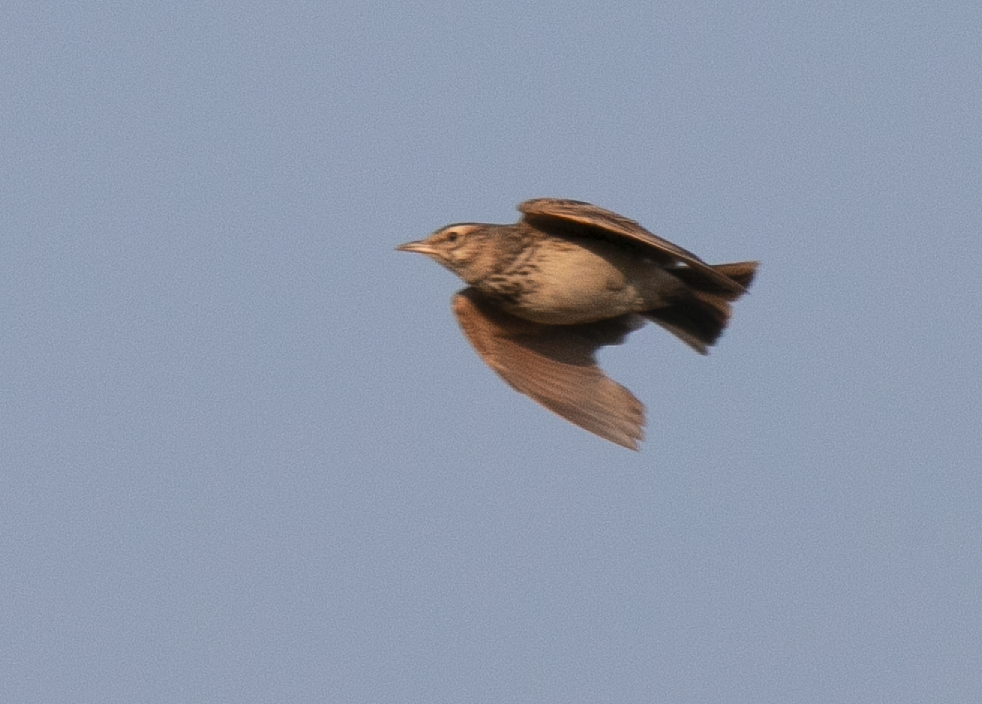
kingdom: Animalia
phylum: Chordata
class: Aves
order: Passeriformes
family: Alaudidae
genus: Galerida
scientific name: Galerida cristata
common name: Crested lark
